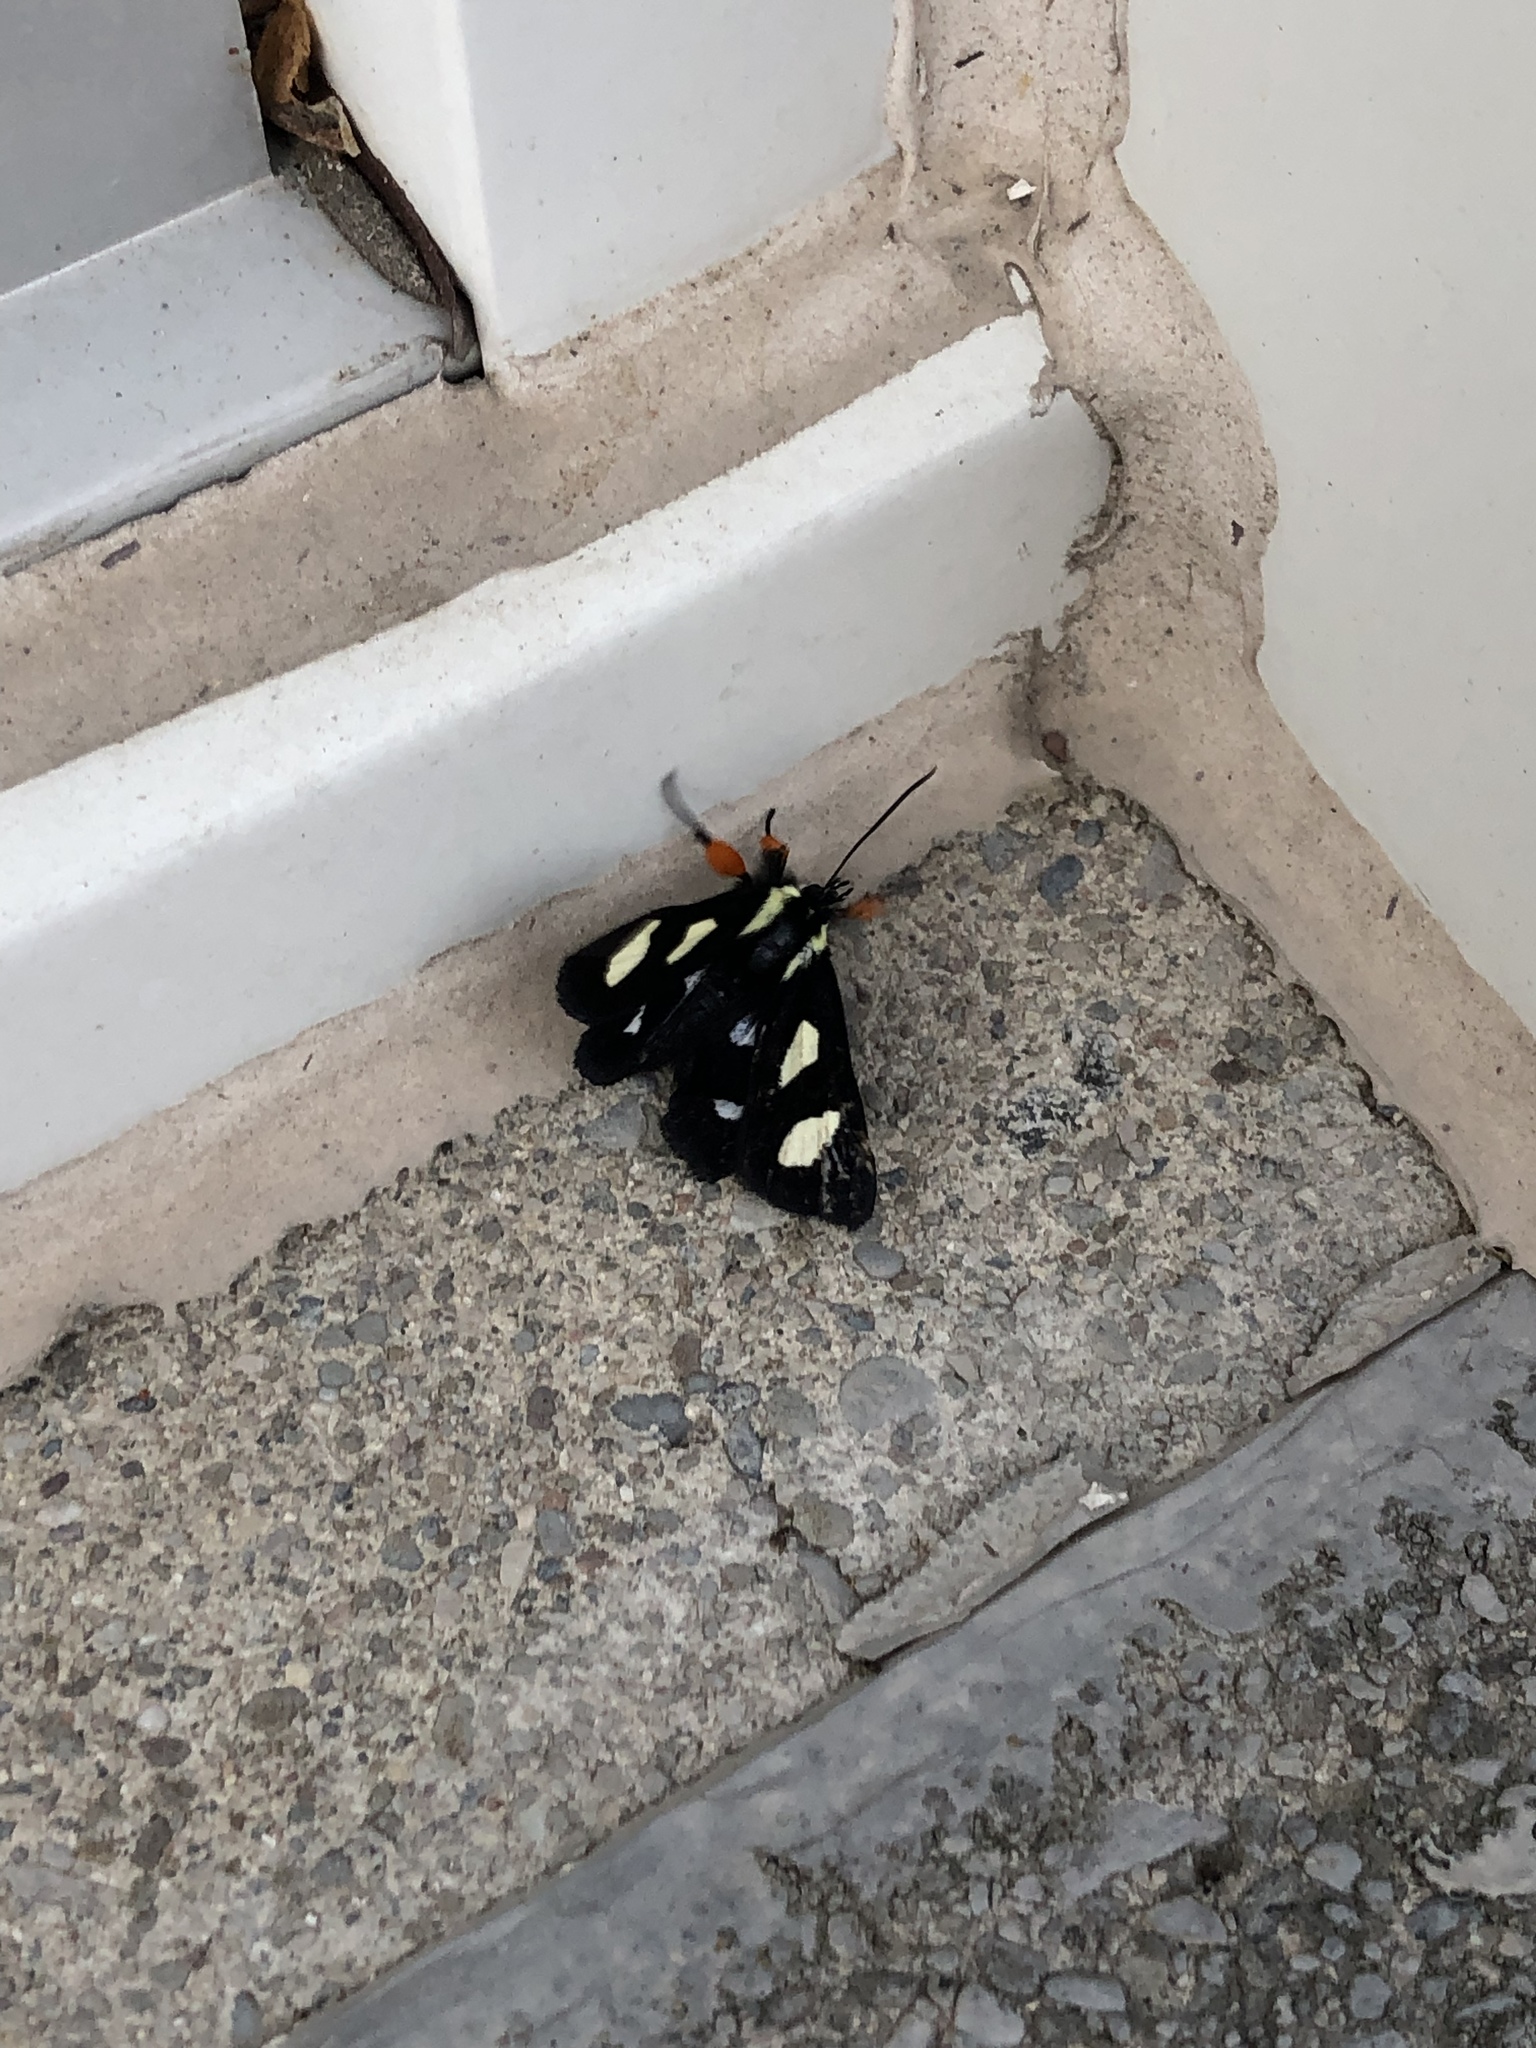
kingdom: Animalia
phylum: Arthropoda
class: Insecta
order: Lepidoptera
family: Noctuidae
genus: Alypia
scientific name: Alypia octomaculata
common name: Eight-spotted forester
